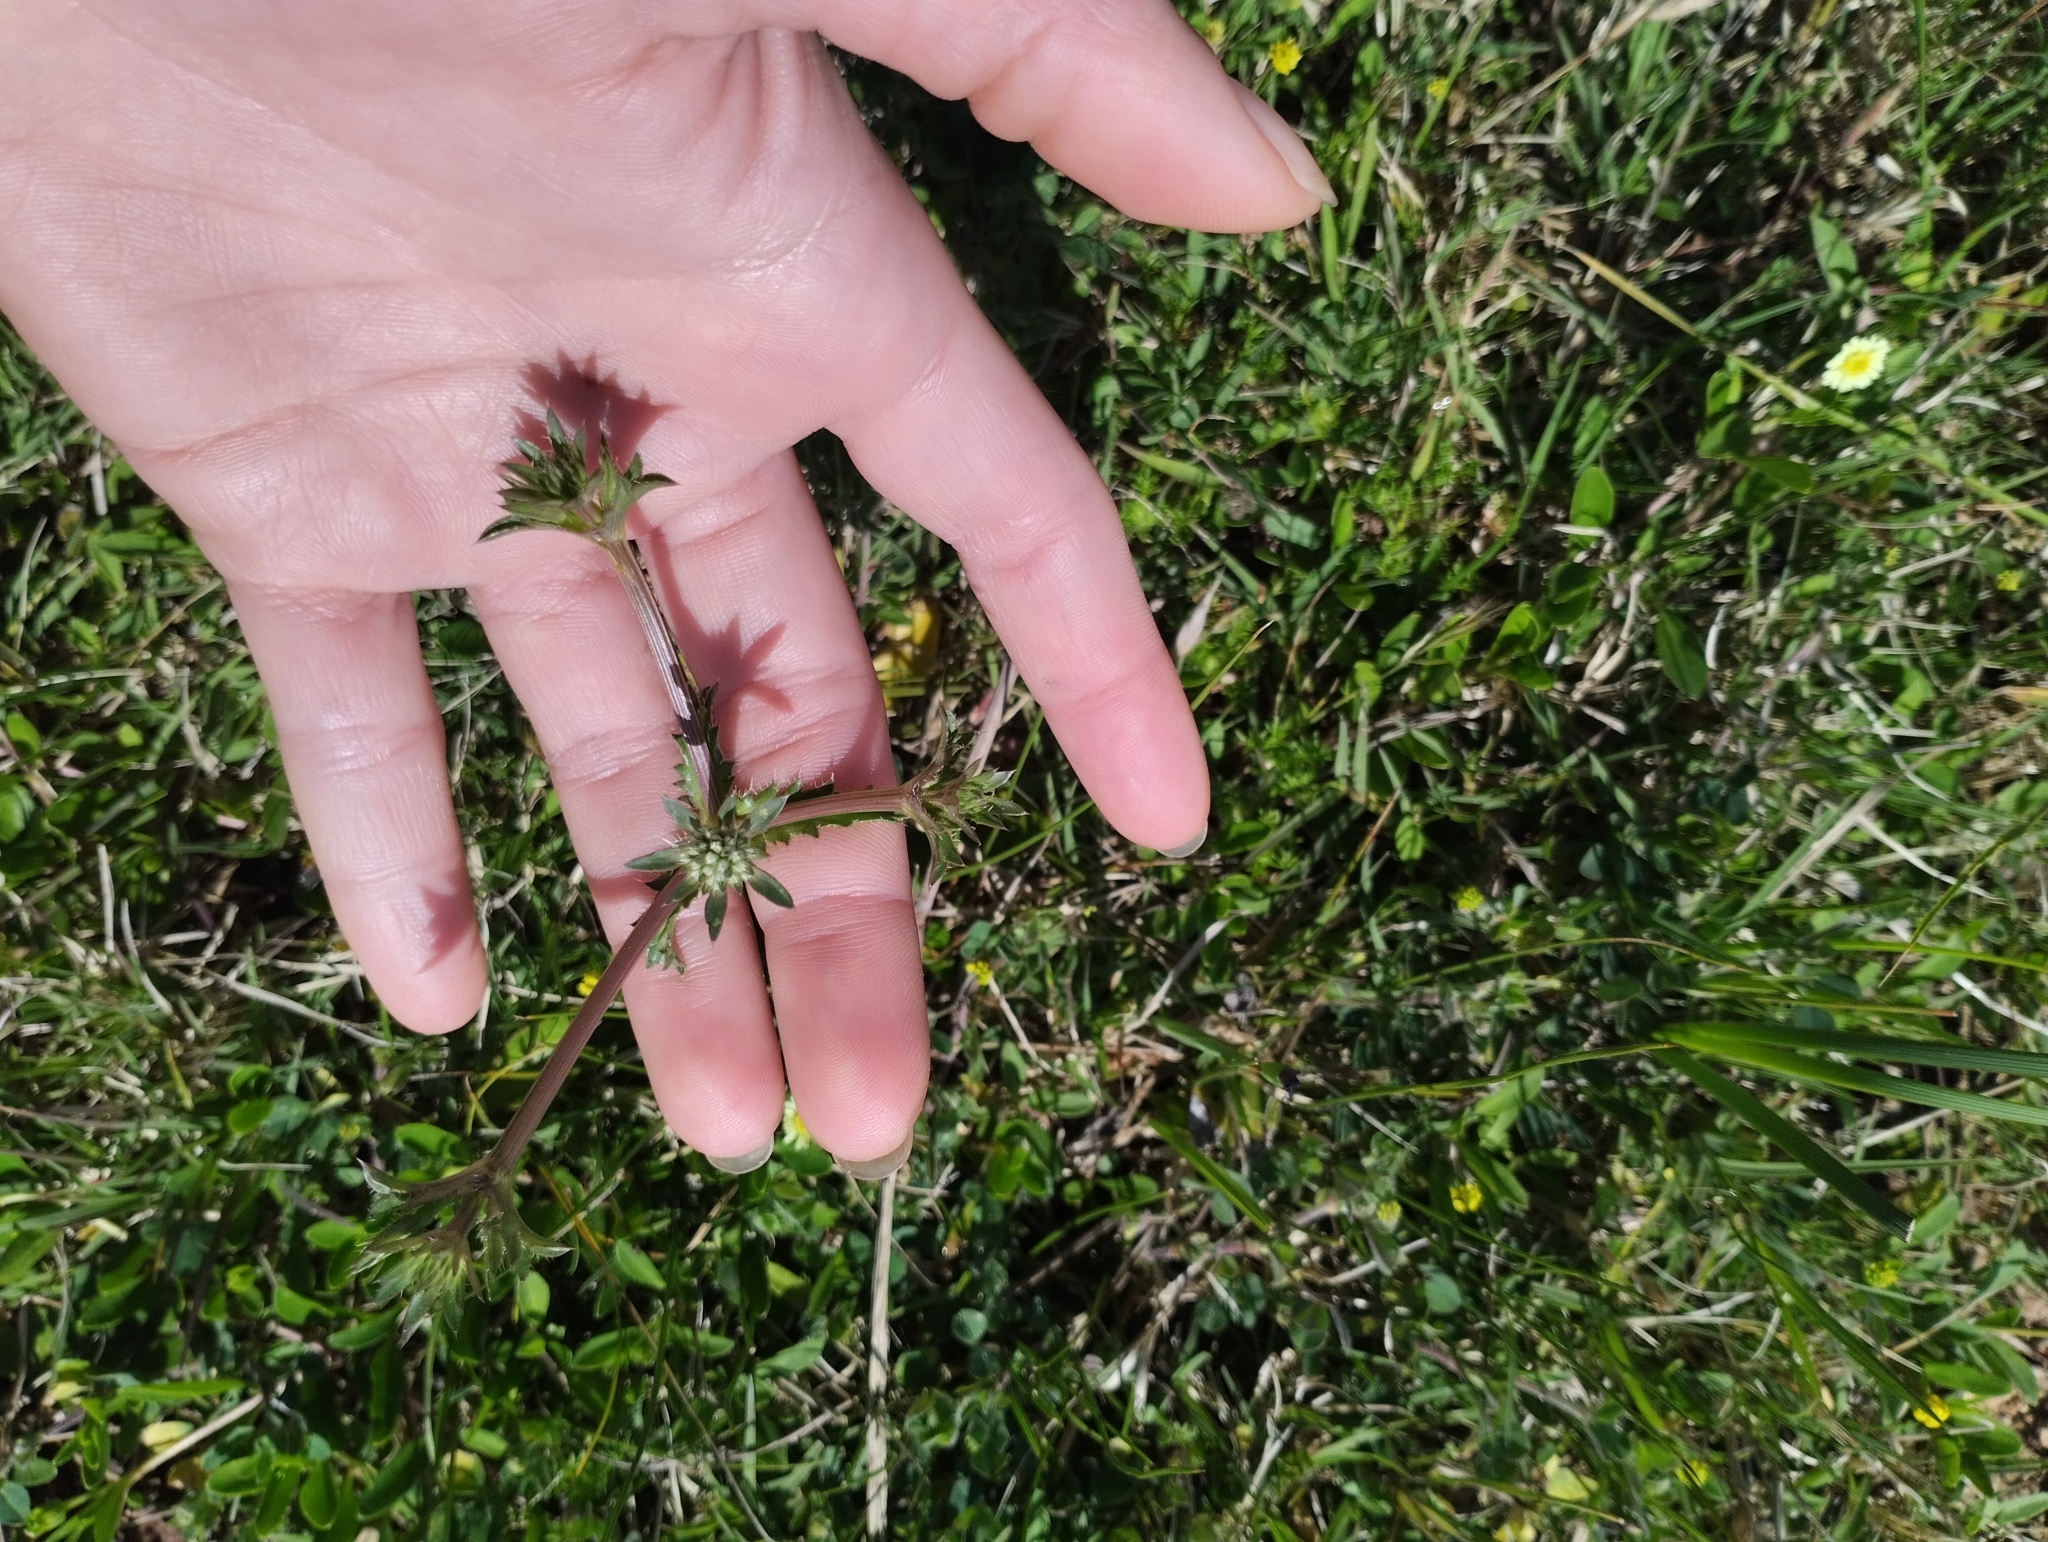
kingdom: Plantae
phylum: Tracheophyta
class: Magnoliopsida
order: Apiales
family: Apiaceae
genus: Eryngium
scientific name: Eryngium nudicaule
